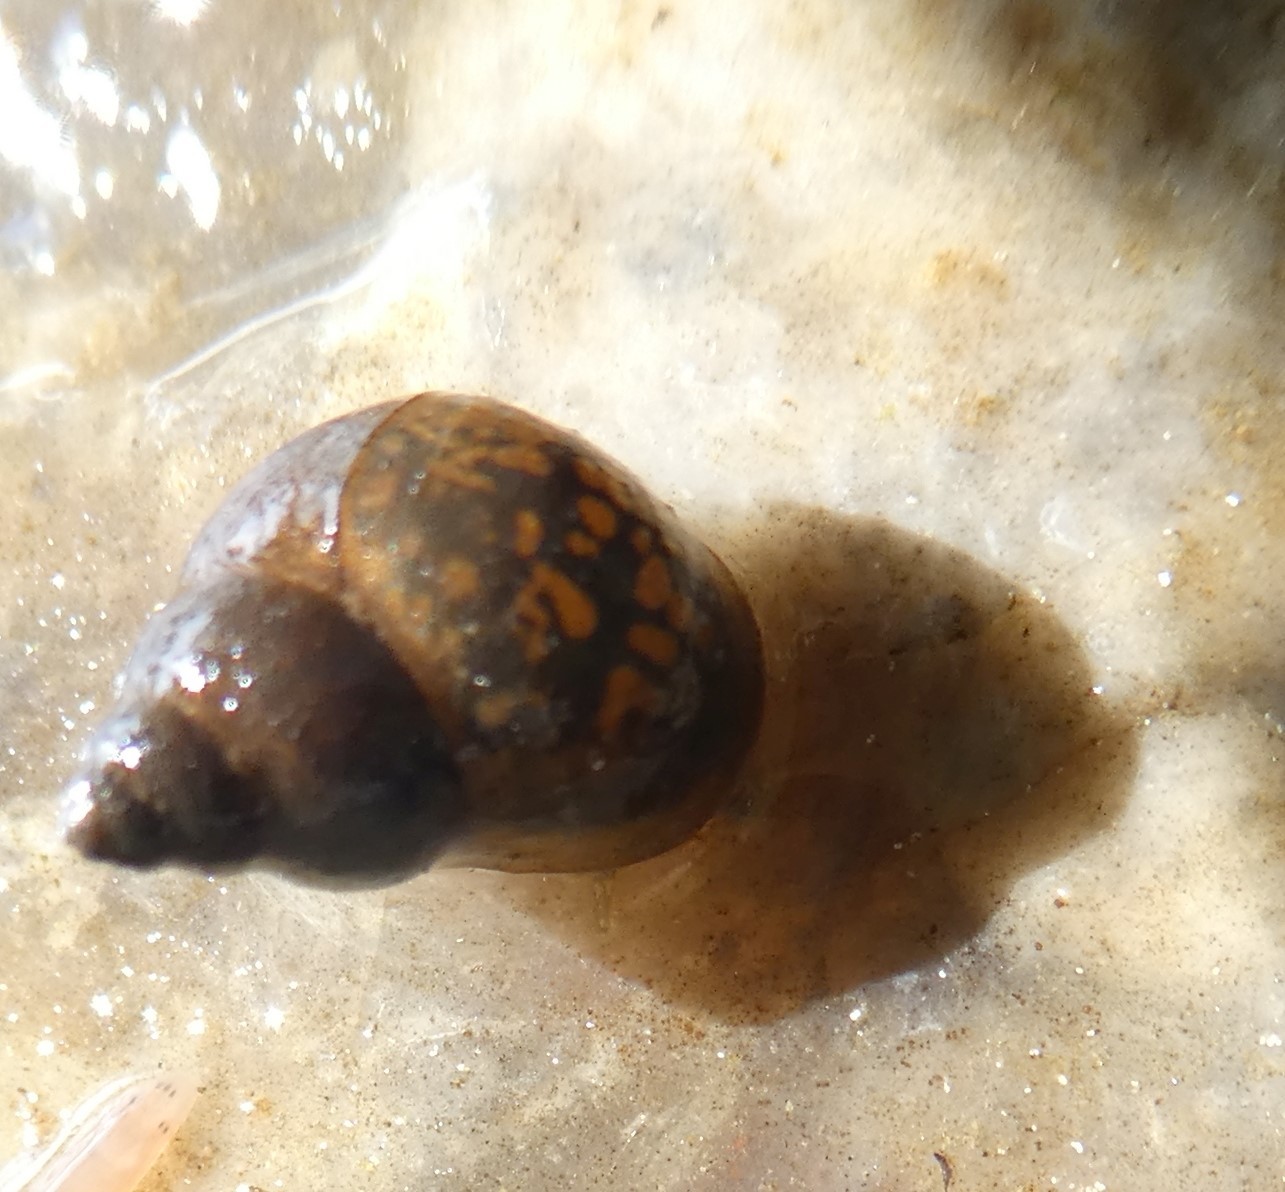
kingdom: Animalia
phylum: Mollusca
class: Gastropoda
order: Littorinimorpha
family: Bithyniidae
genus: Bithynia
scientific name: Bithynia tentaculata
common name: Common bithynia
